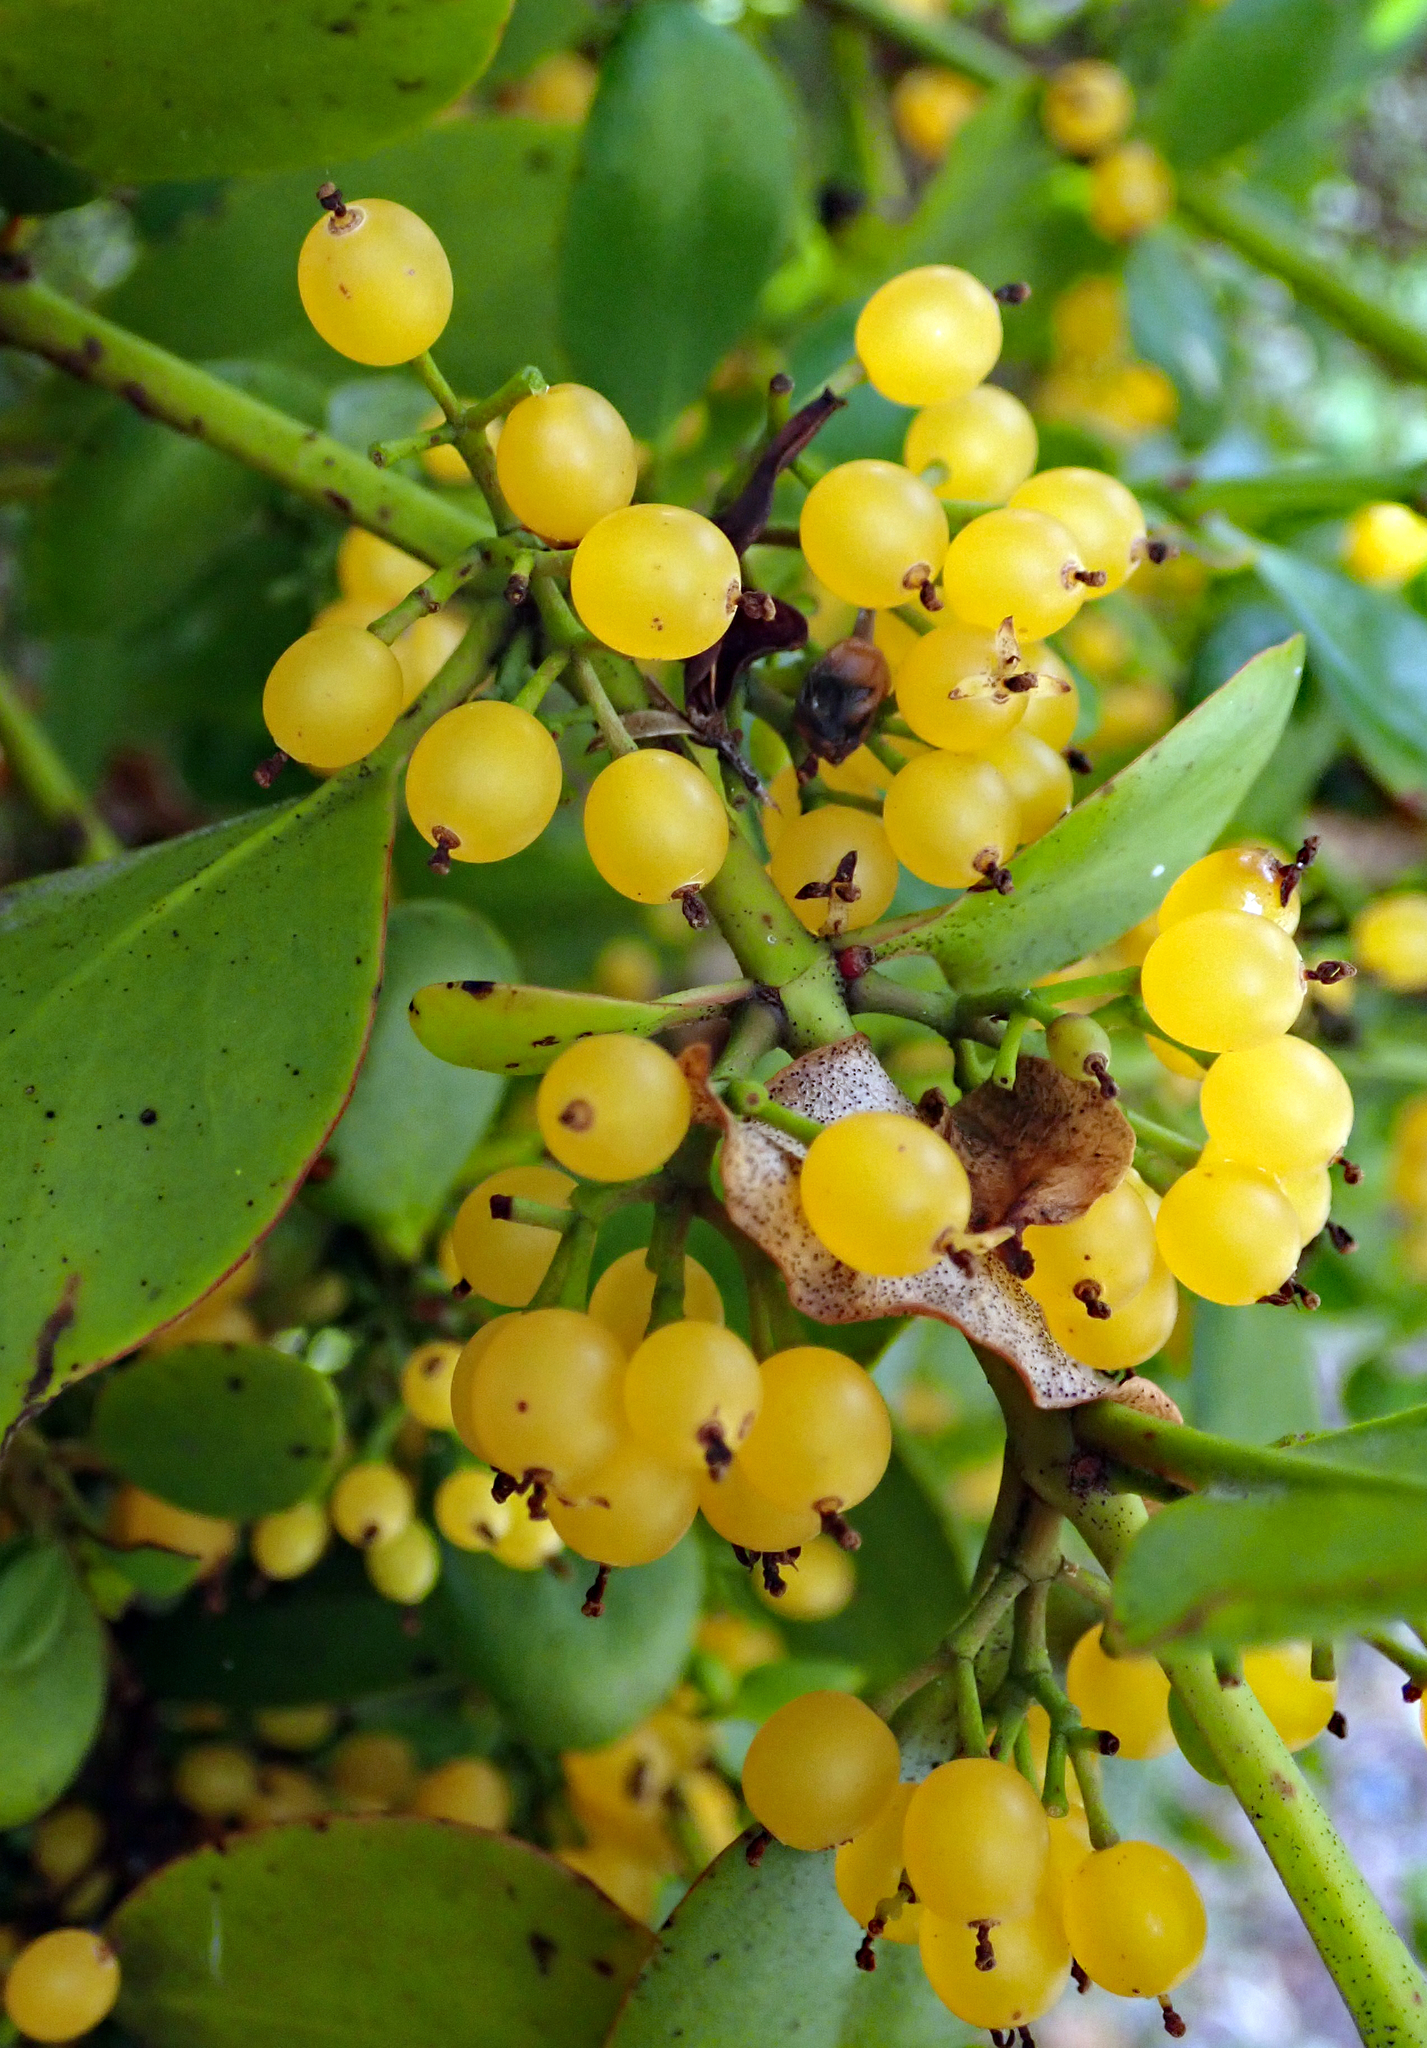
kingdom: Plantae
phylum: Tracheophyta
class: Magnoliopsida
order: Santalales
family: Loranthaceae
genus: Ileostylus
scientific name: Ileostylus micranthus
